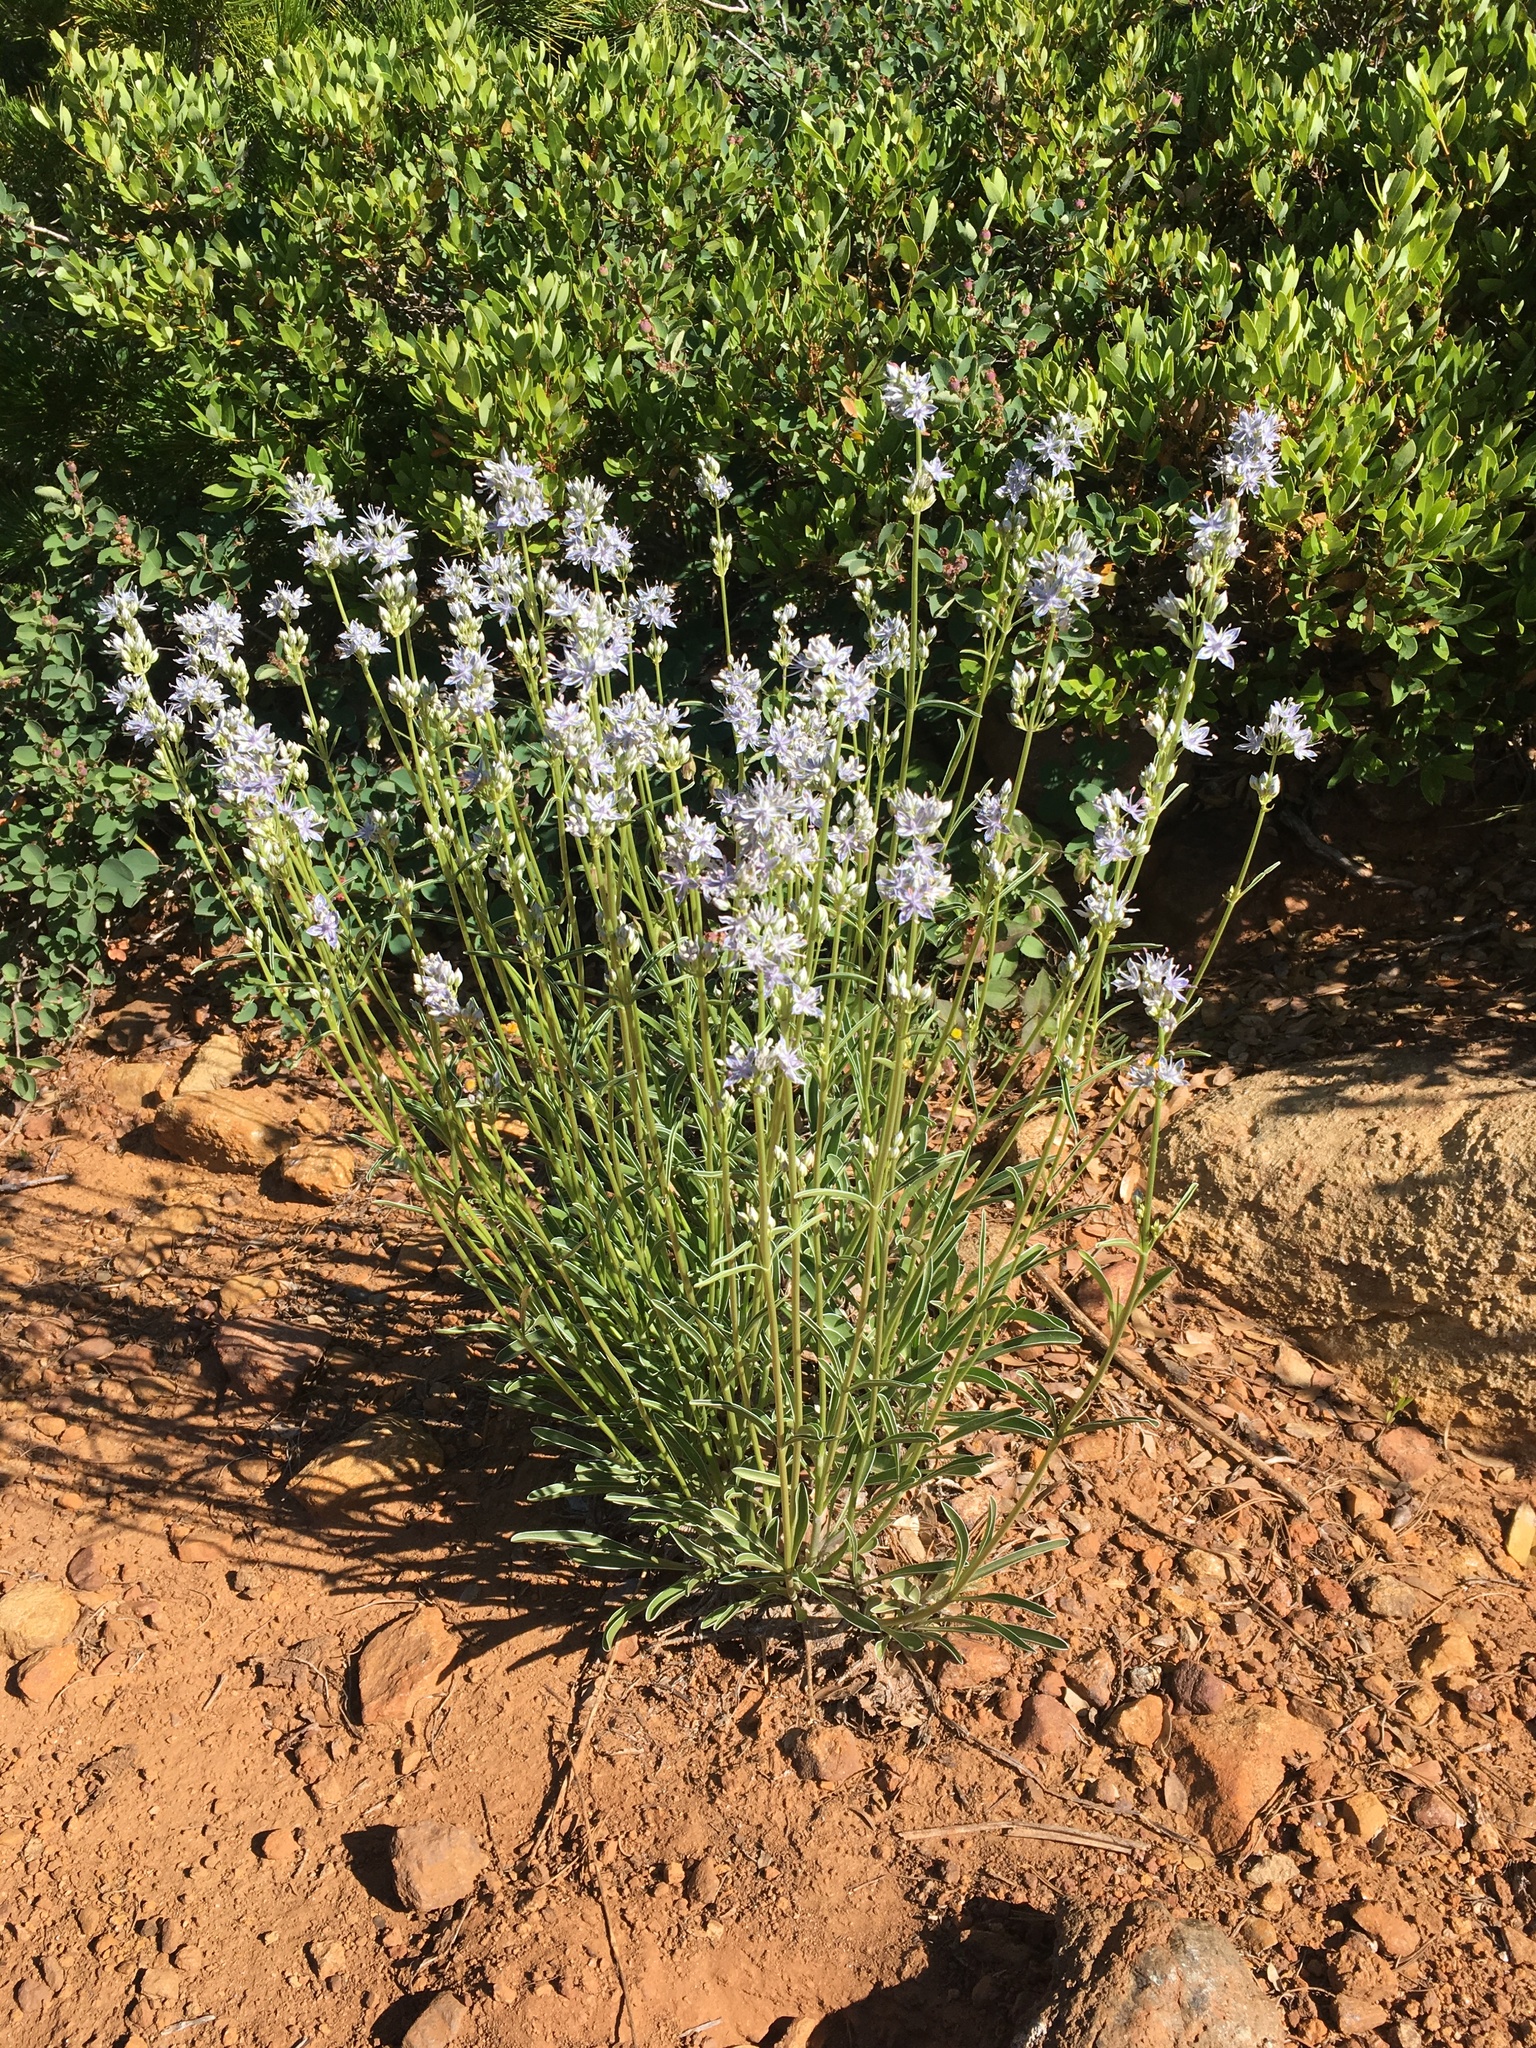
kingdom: Plantae
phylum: Tracheophyta
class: Magnoliopsida
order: Gentianales
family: Gentianaceae
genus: Frasera
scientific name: Frasera albicaulis
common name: Cusick's frasera
